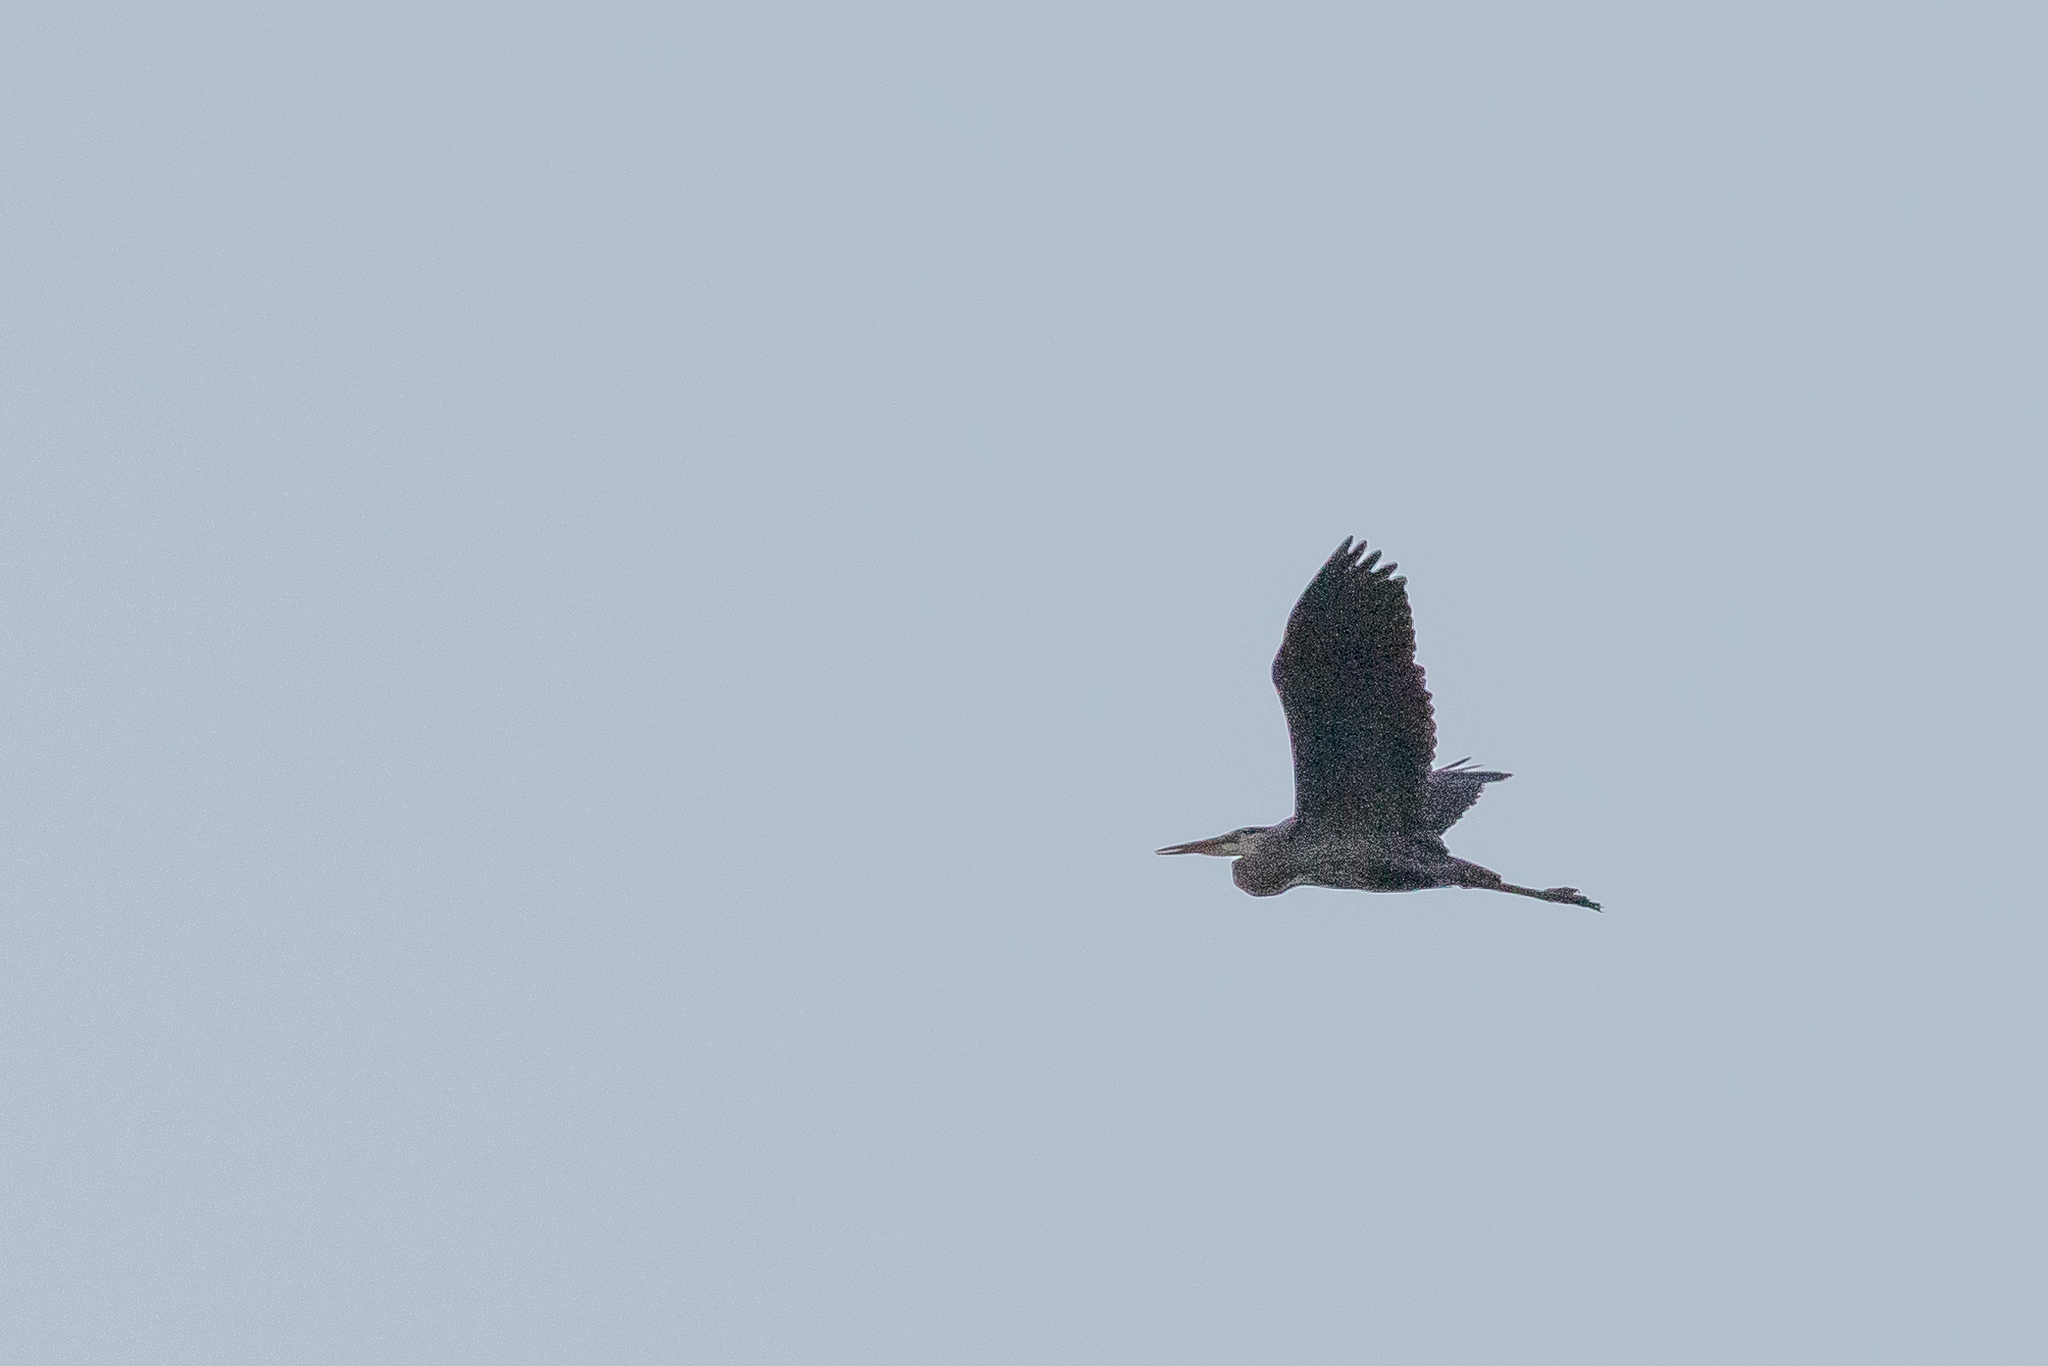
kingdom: Animalia
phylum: Chordata
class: Aves
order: Pelecaniformes
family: Ardeidae
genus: Ardea
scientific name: Ardea herodias
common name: Great blue heron
